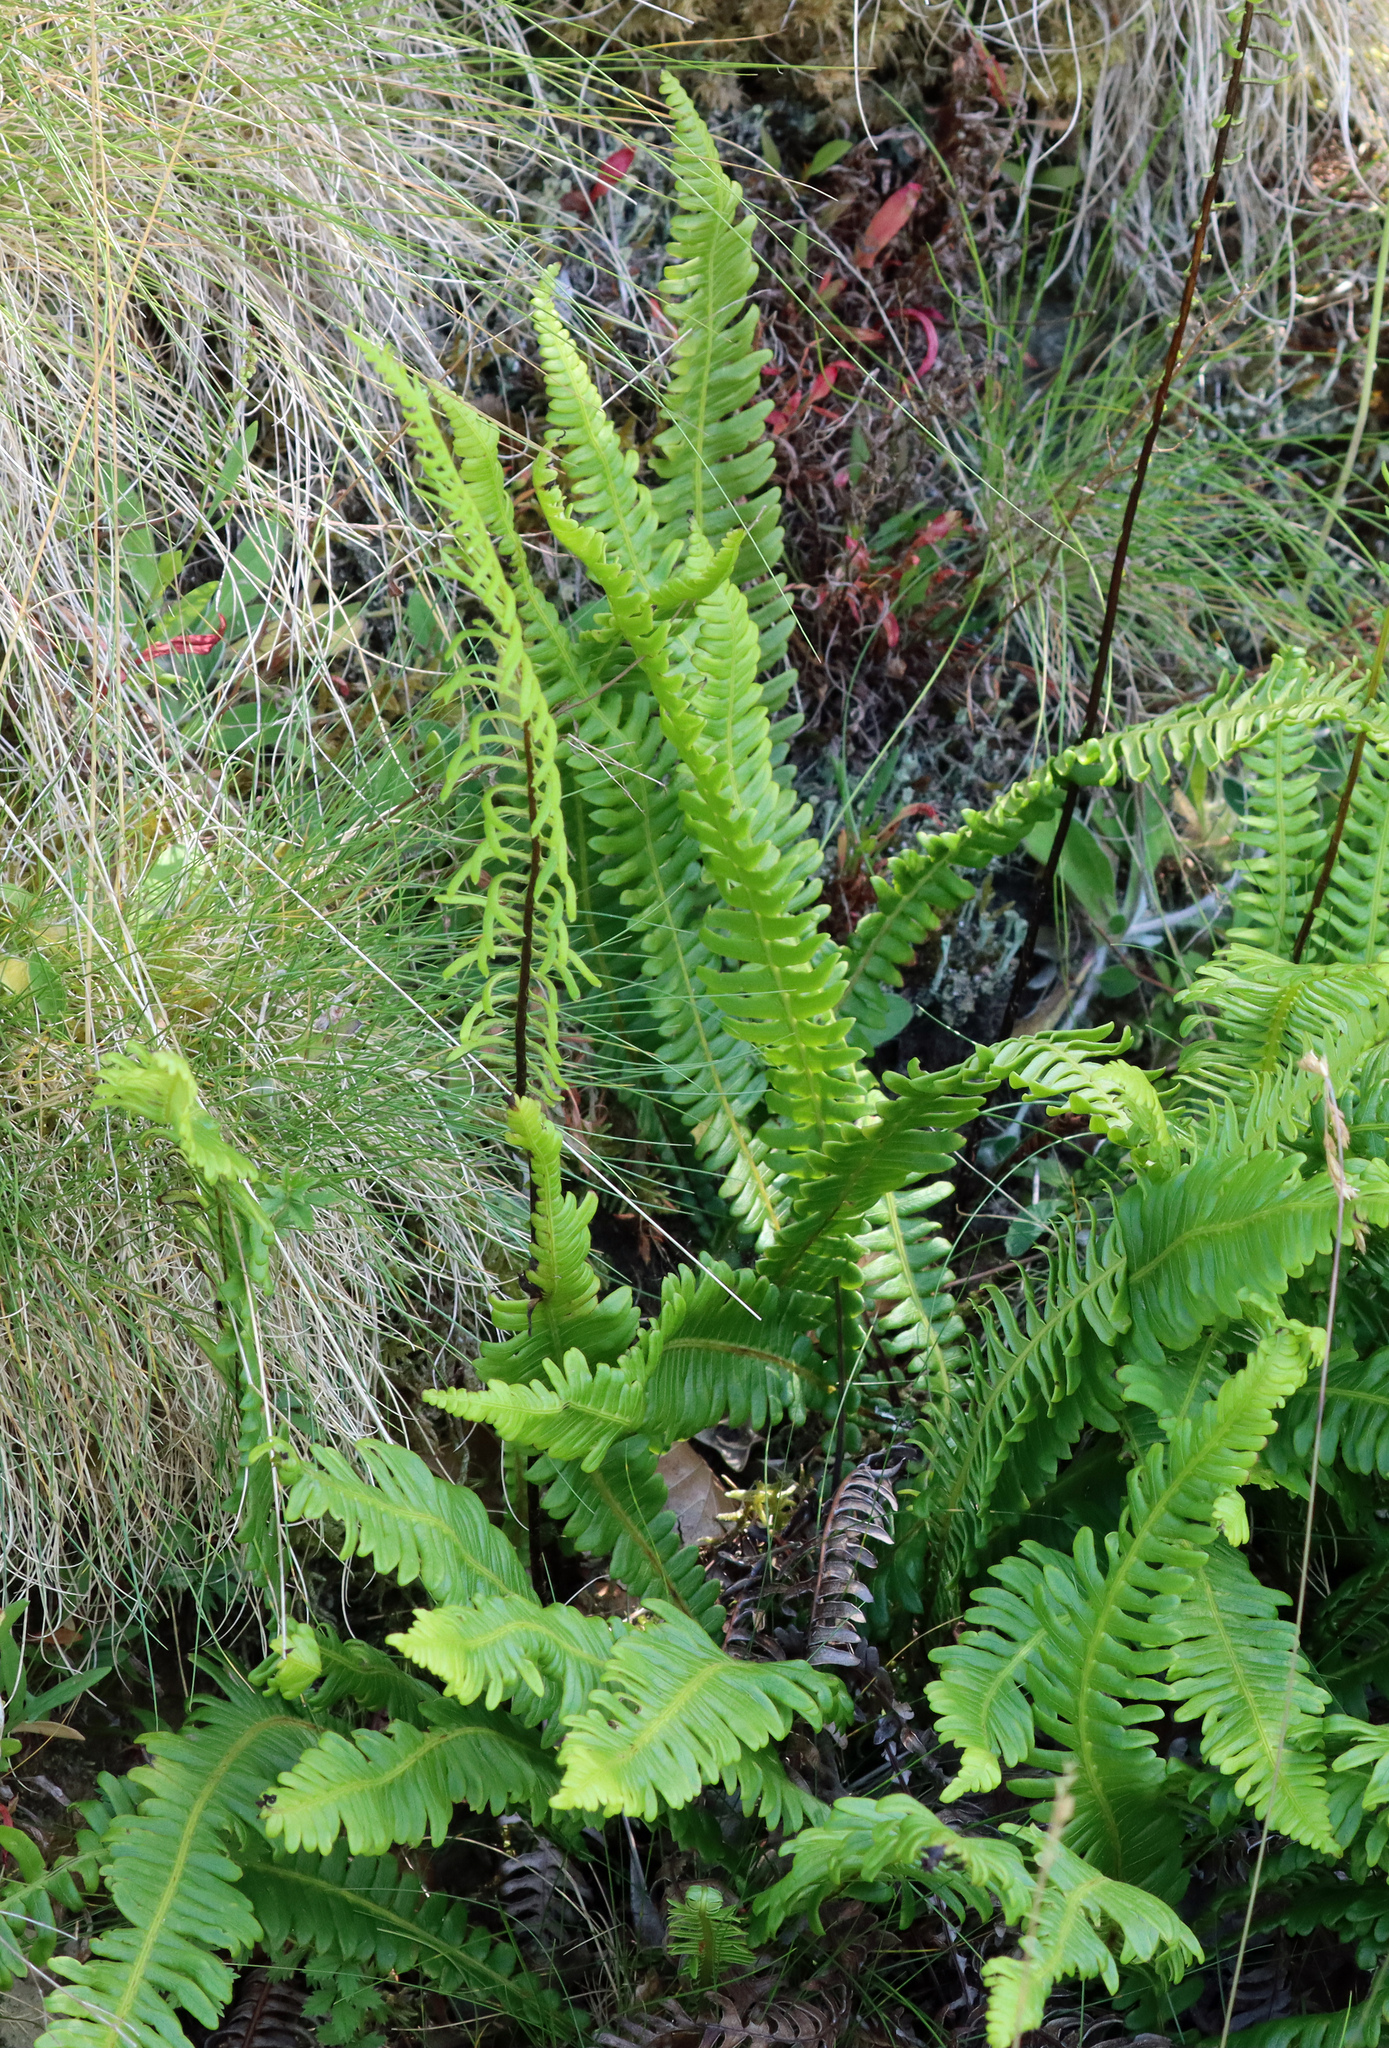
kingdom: Plantae
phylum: Tracheophyta
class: Polypodiopsida
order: Polypodiales
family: Blechnaceae
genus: Struthiopteris
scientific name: Struthiopteris spicant
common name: Deer fern
